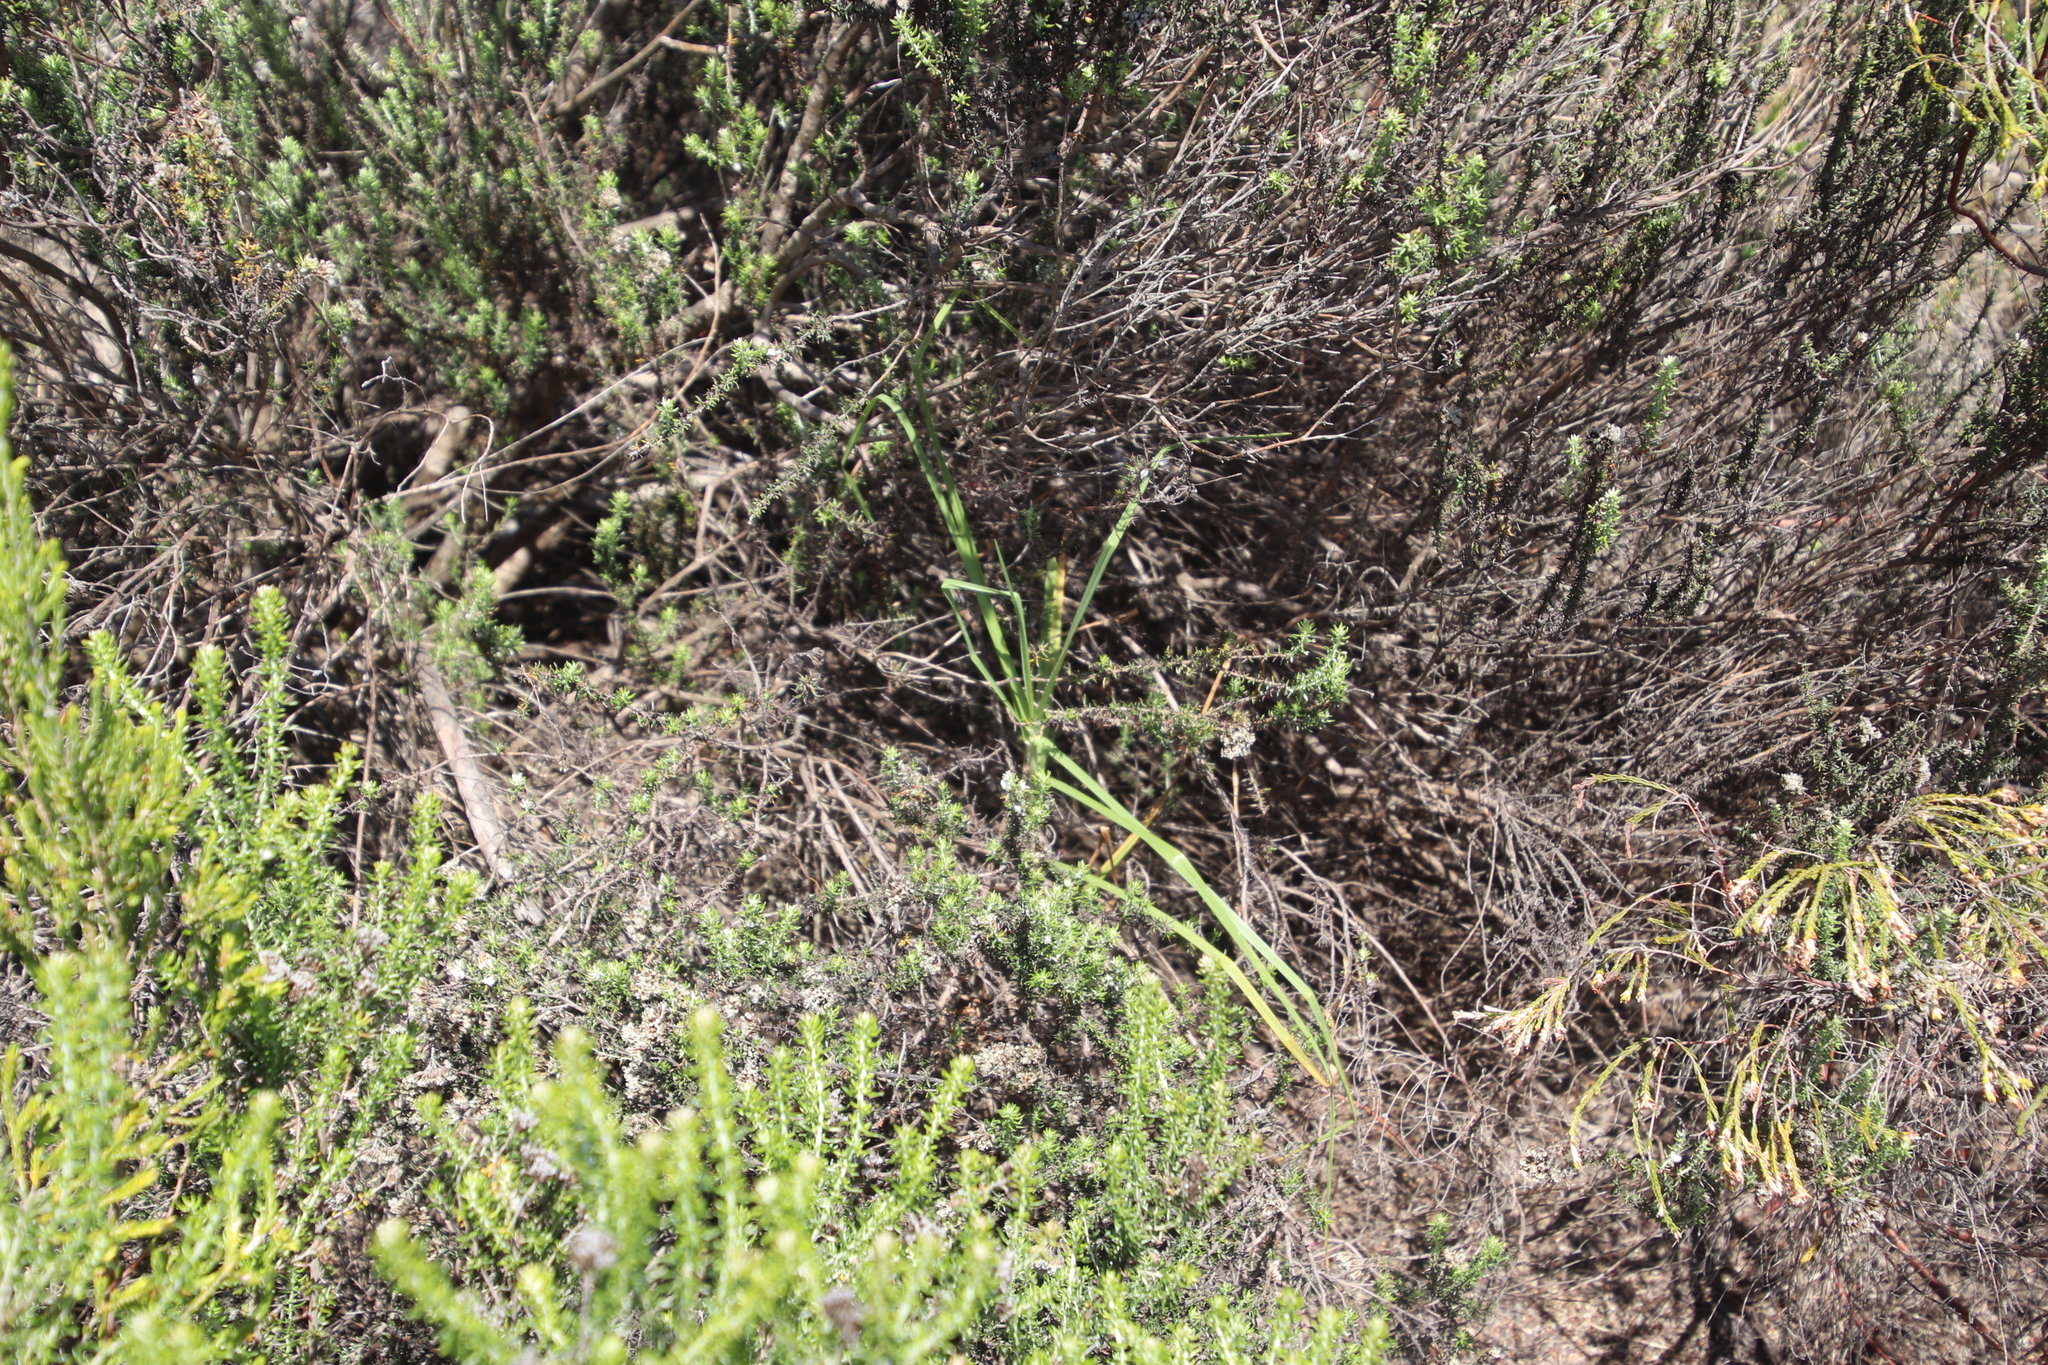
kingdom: Plantae
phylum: Tracheophyta
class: Liliopsida
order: Poales
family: Poaceae
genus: Cenchrus
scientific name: Cenchrus clandestinus
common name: Kikuyugrass
